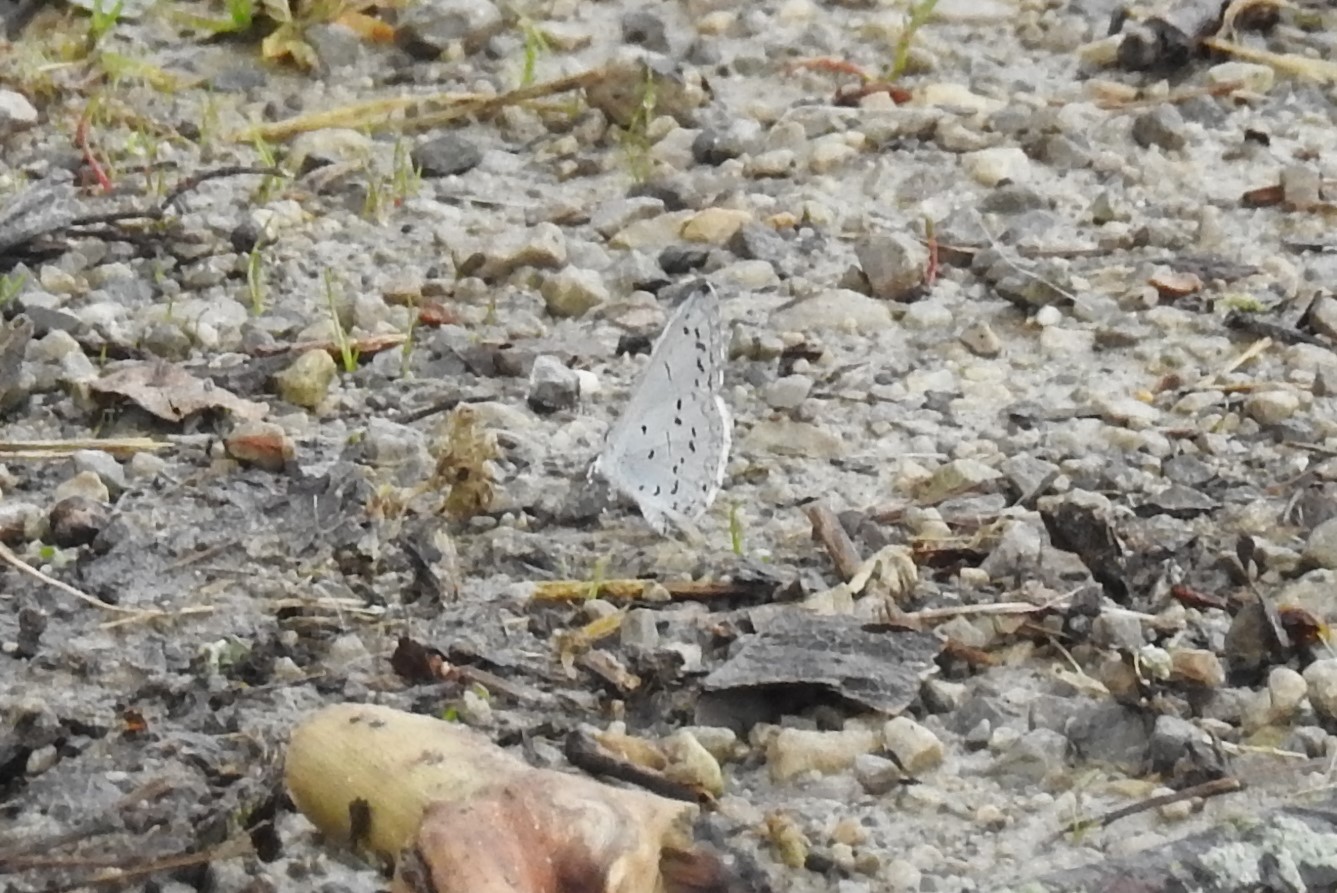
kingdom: Animalia
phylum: Arthropoda
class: Insecta
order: Lepidoptera
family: Lycaenidae
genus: Celastrina
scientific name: Celastrina ladon
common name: Spring azure
